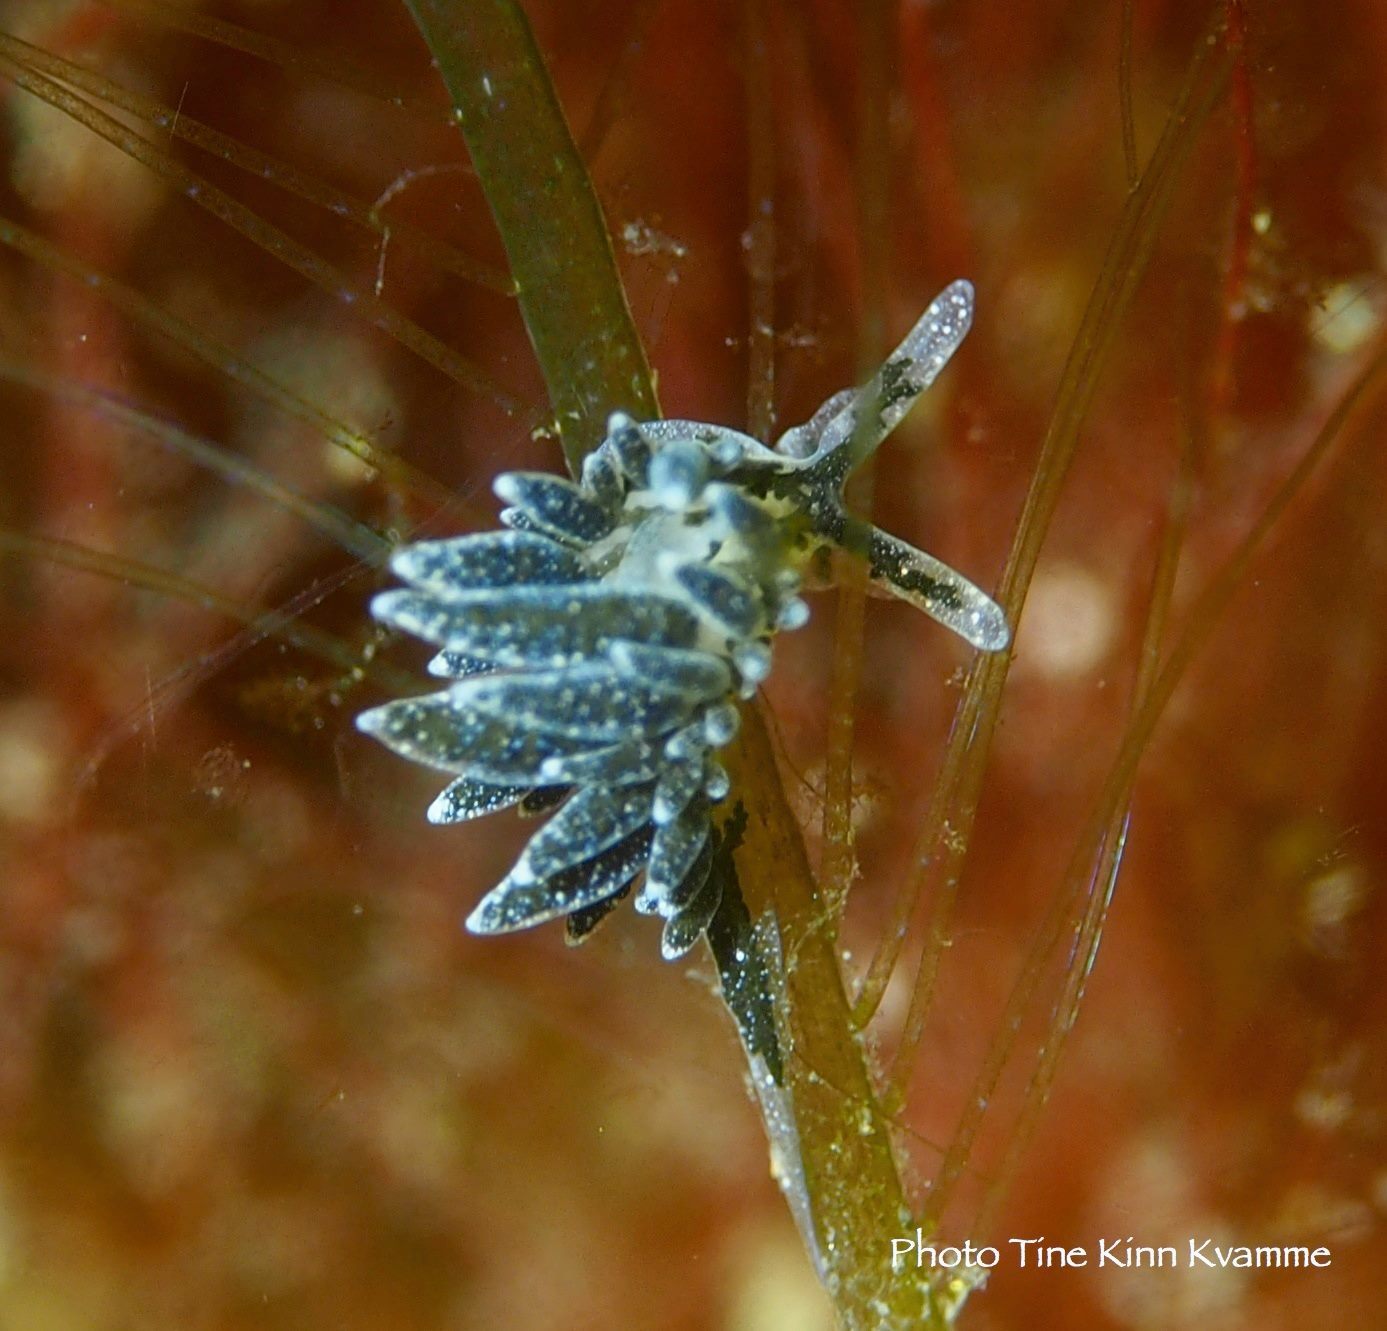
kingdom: Animalia
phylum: Mollusca
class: Gastropoda
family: Limapontiidae
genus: Placida
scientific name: Placida dendritica
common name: Dendritic nudibranch
